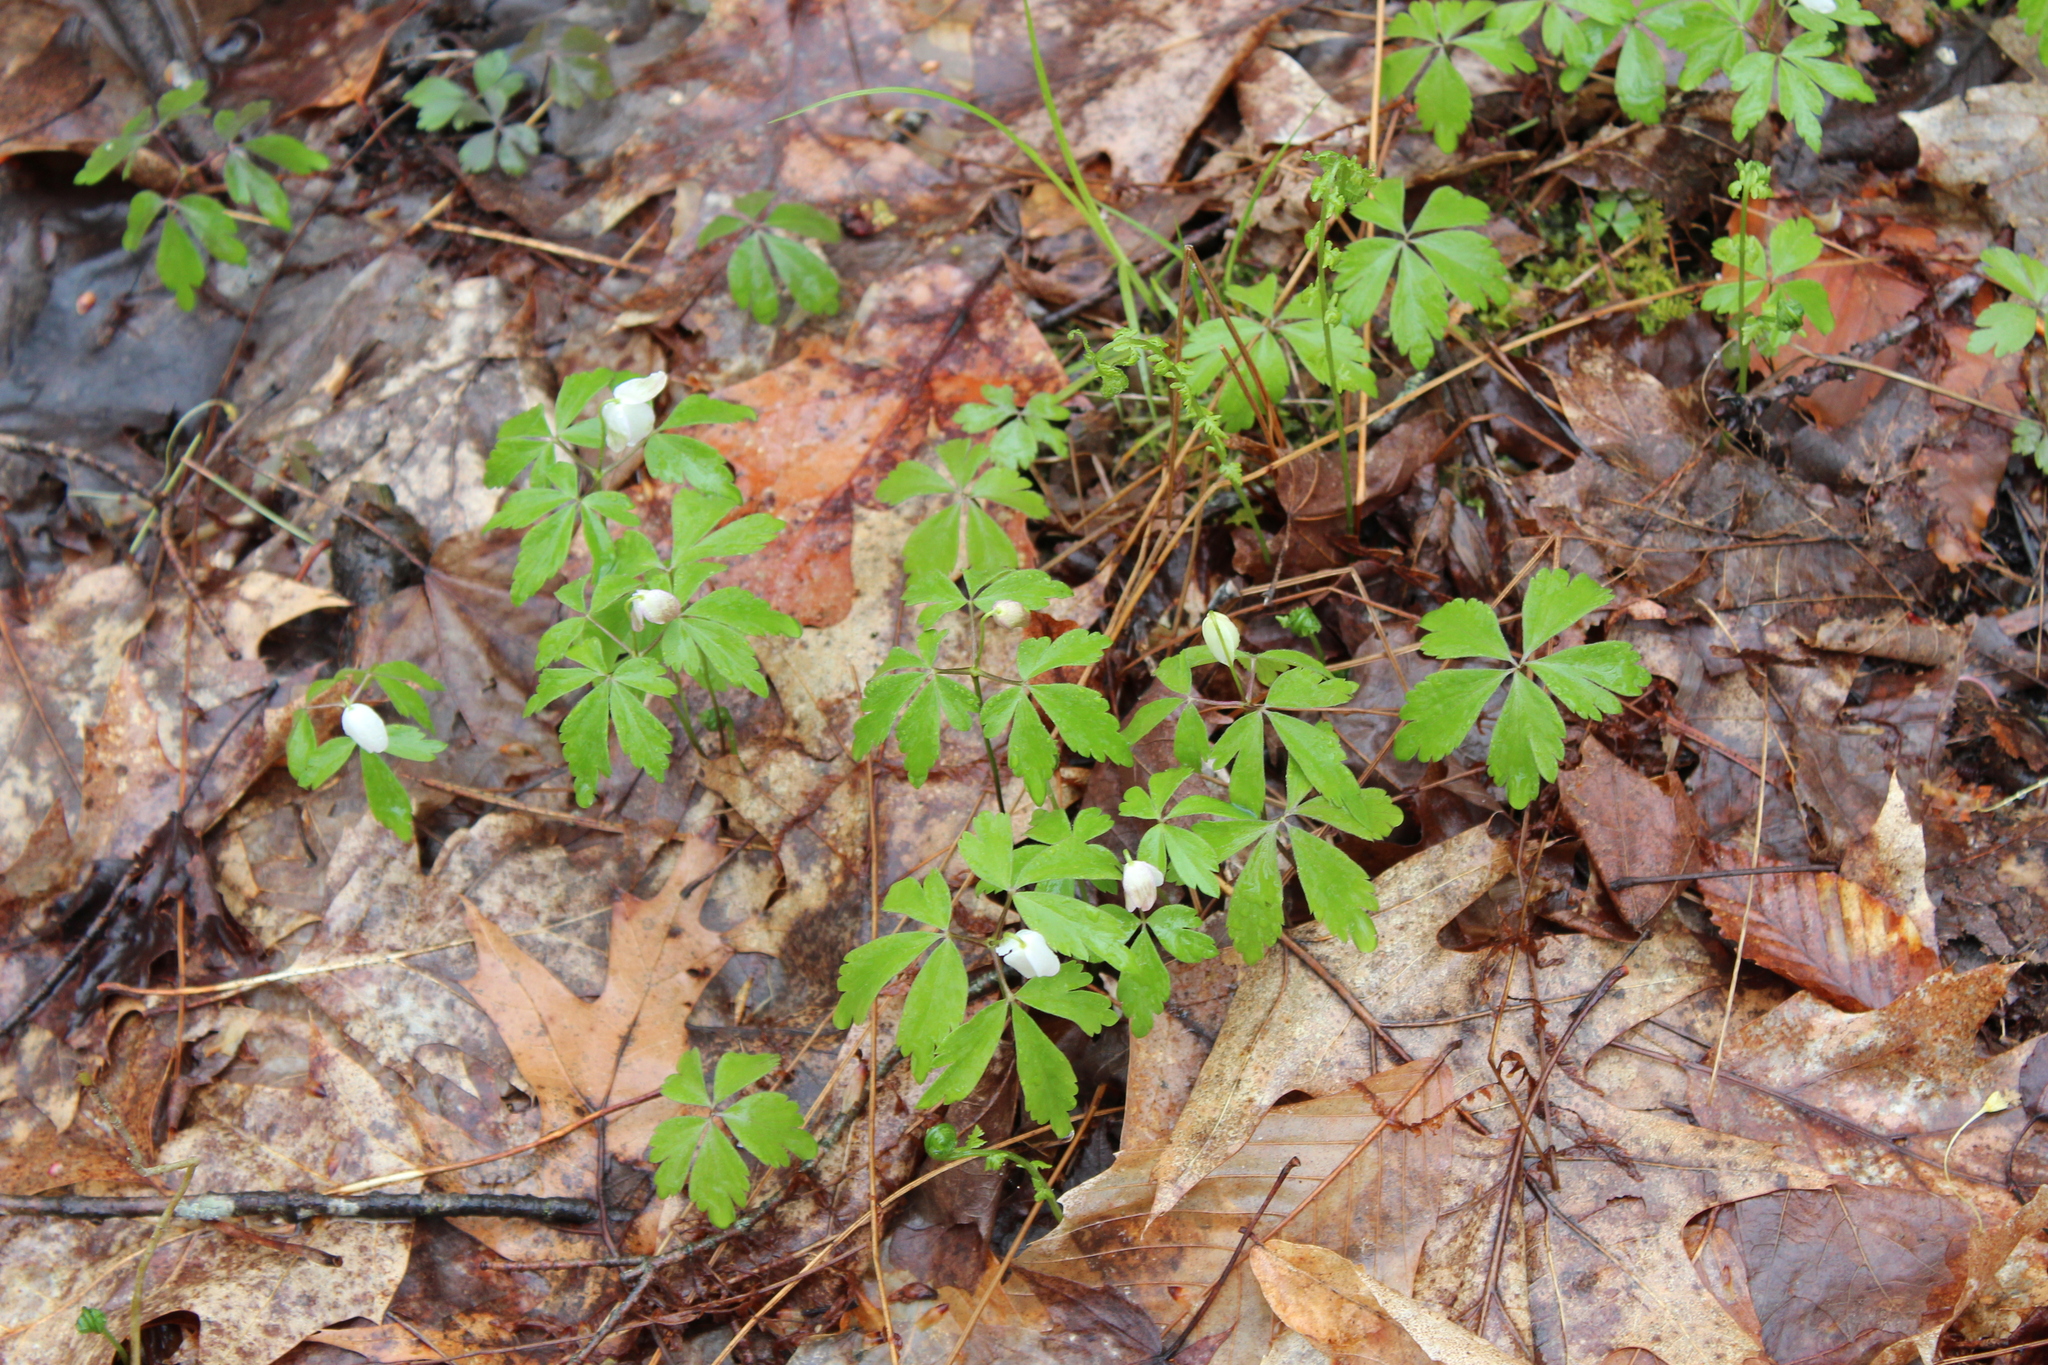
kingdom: Plantae
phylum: Tracheophyta
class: Magnoliopsida
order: Ranunculales
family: Ranunculaceae
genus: Anemone
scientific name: Anemone quinquefolia
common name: Wood anemone
